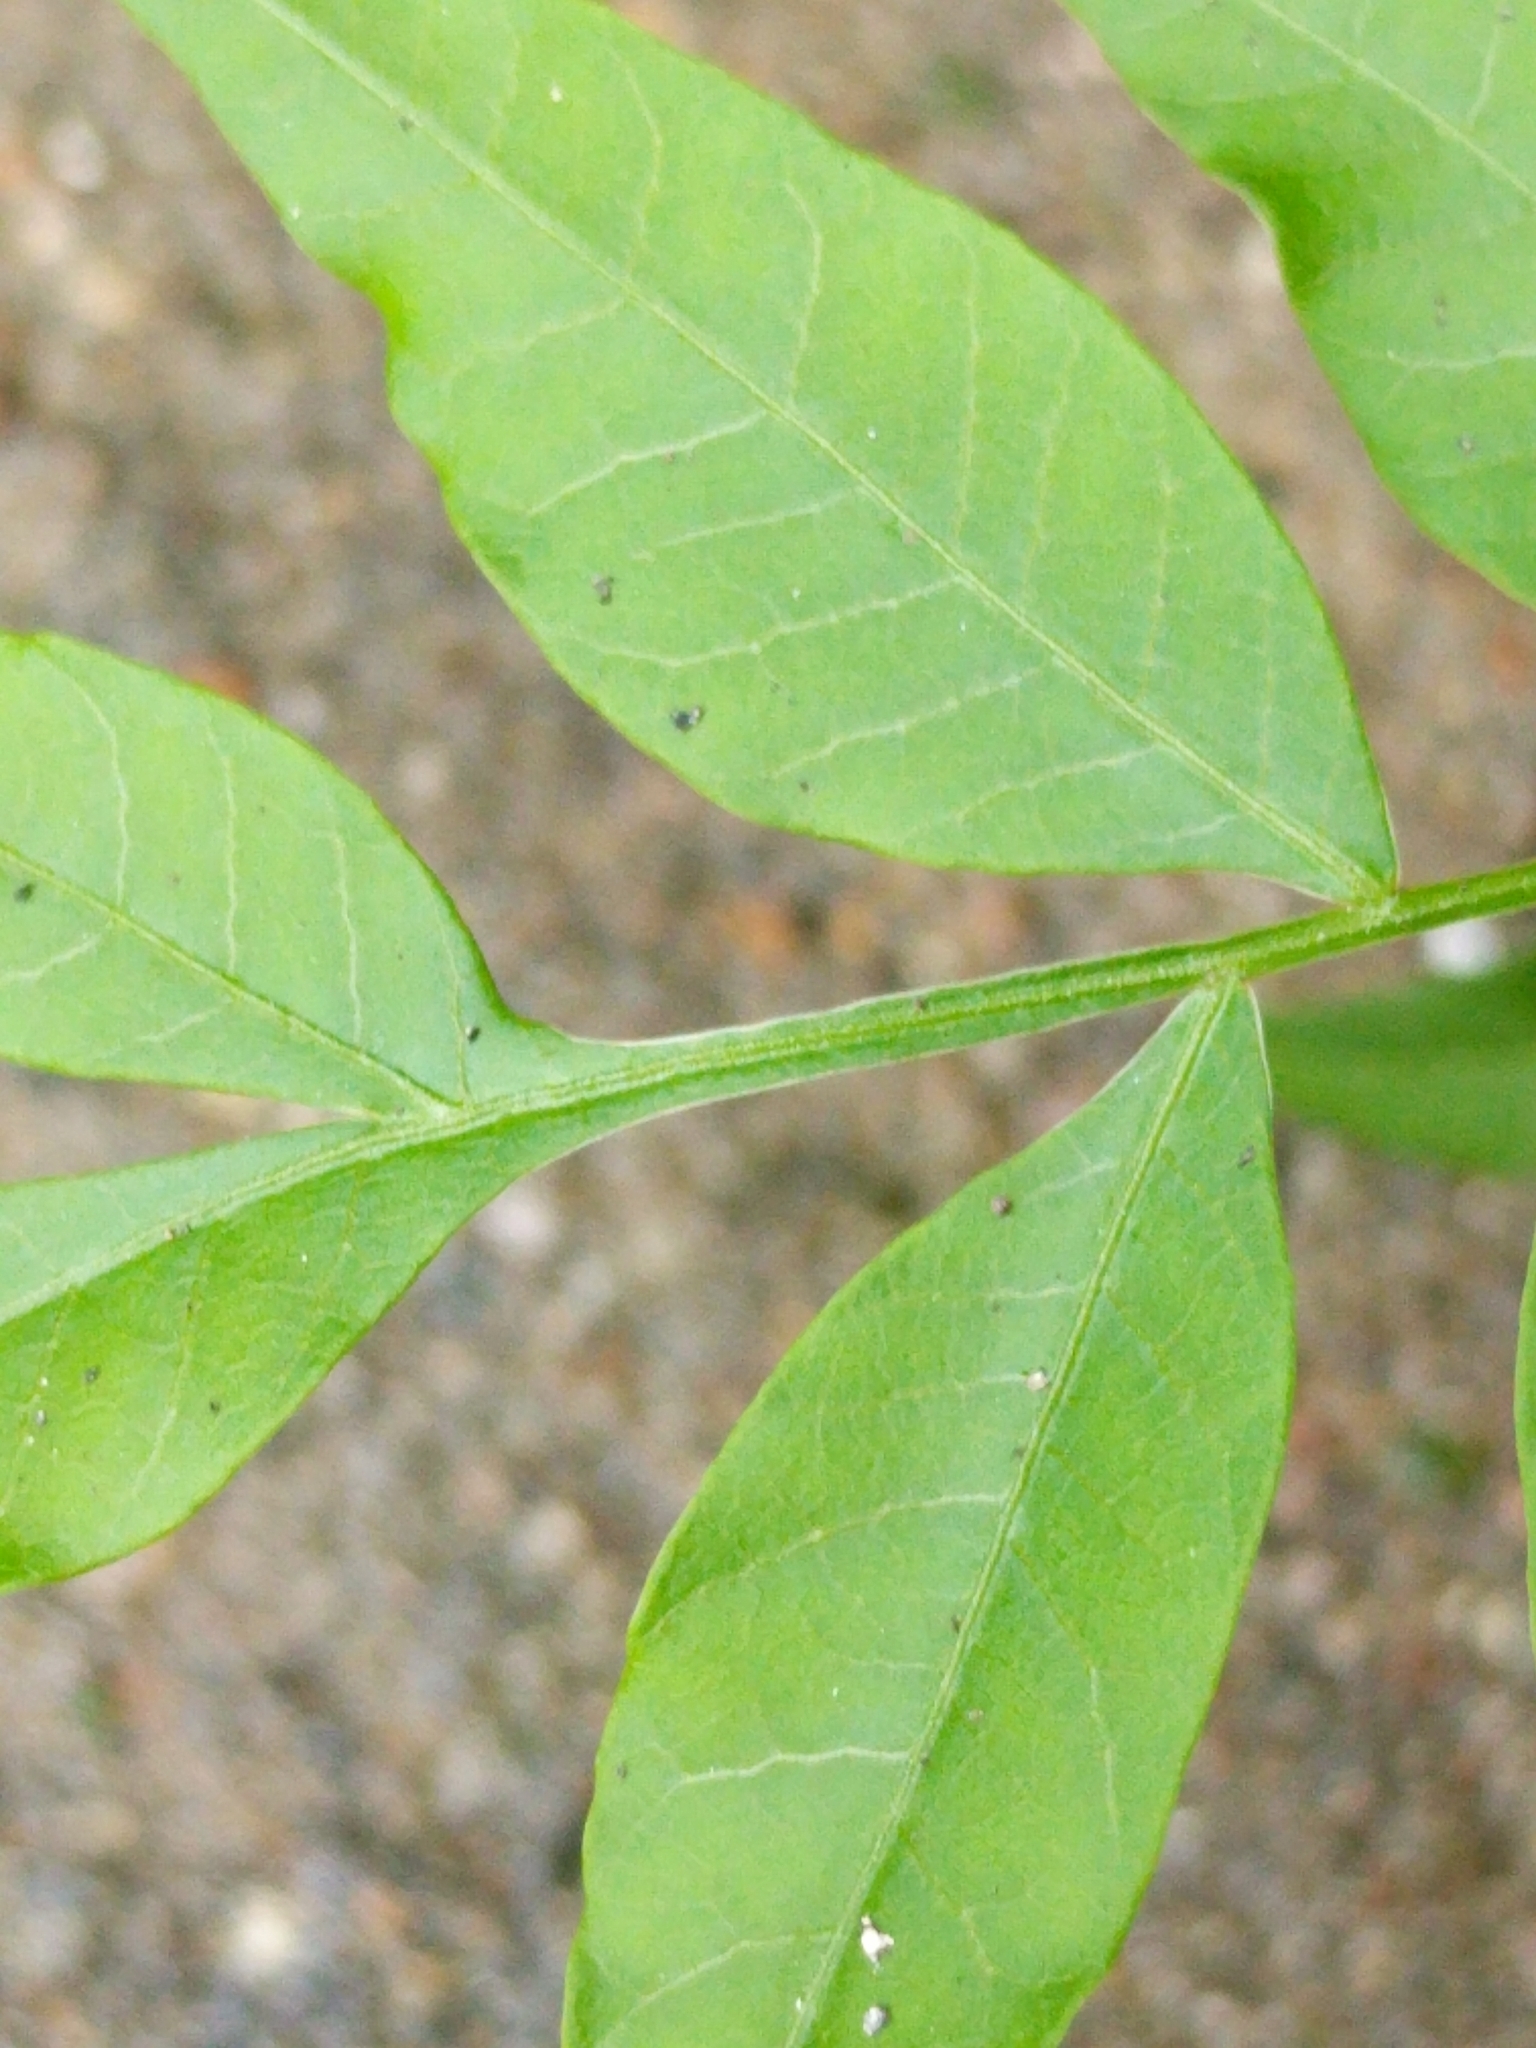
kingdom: Plantae
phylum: Tracheophyta
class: Magnoliopsida
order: Sapindales
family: Anacardiaceae
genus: Pistacia
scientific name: Pistacia chinensis
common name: Chinese pistache
